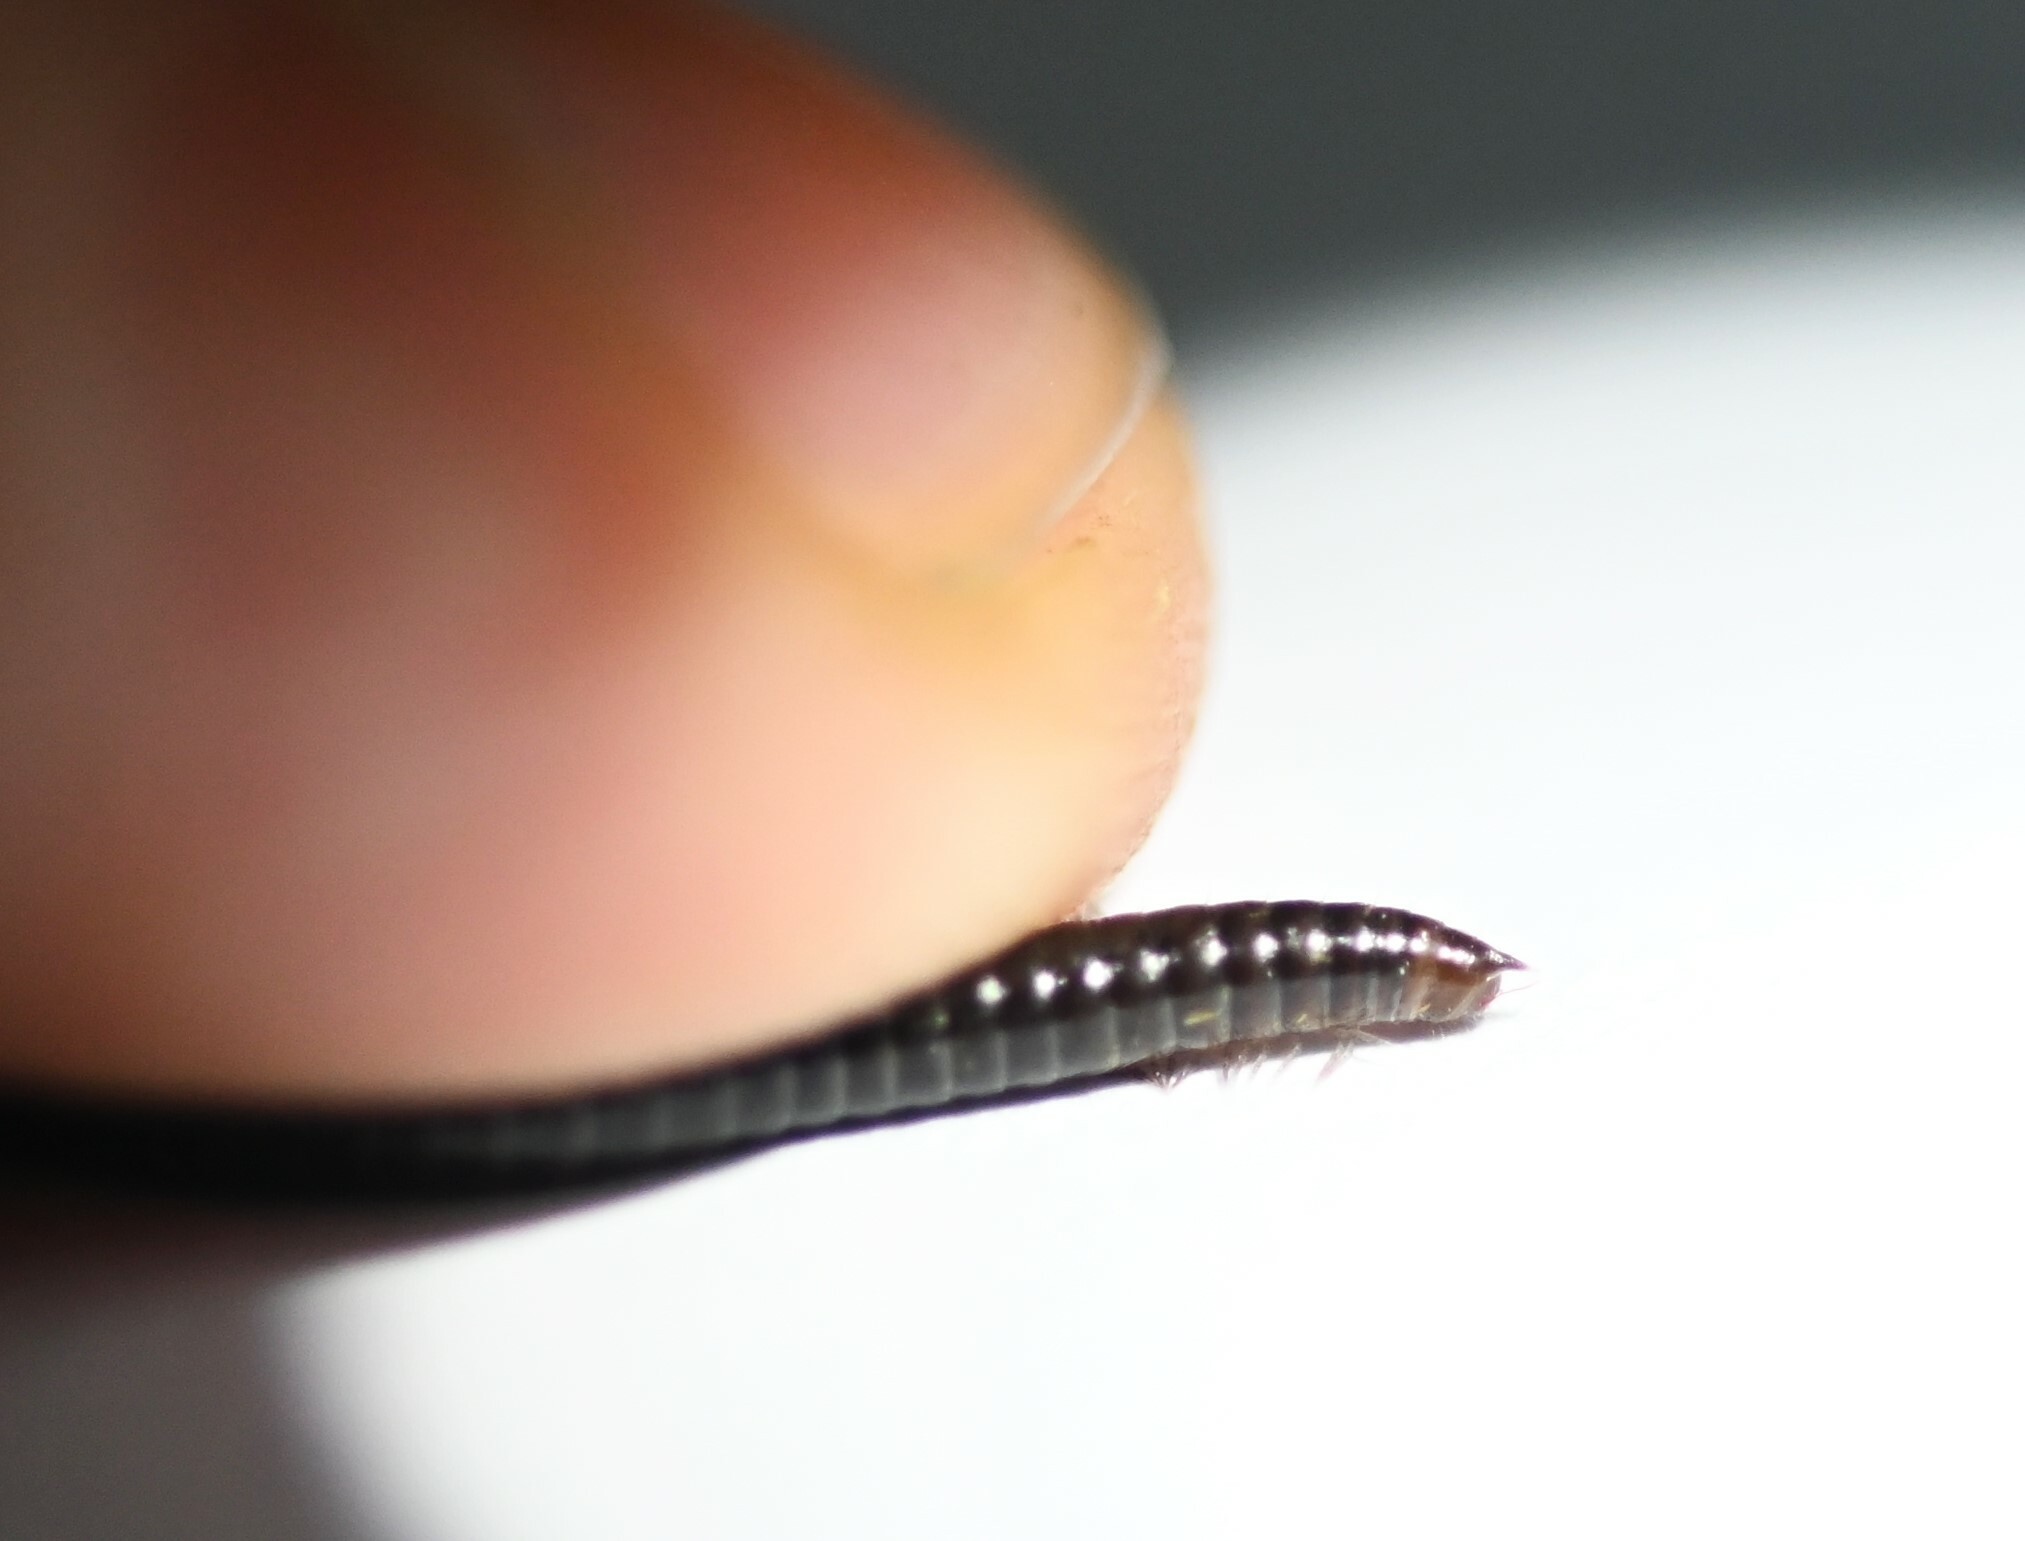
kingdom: Animalia
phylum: Arthropoda
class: Diplopoda
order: Julida
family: Julidae
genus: Ophyiulus
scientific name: Ophyiulus pilosus
